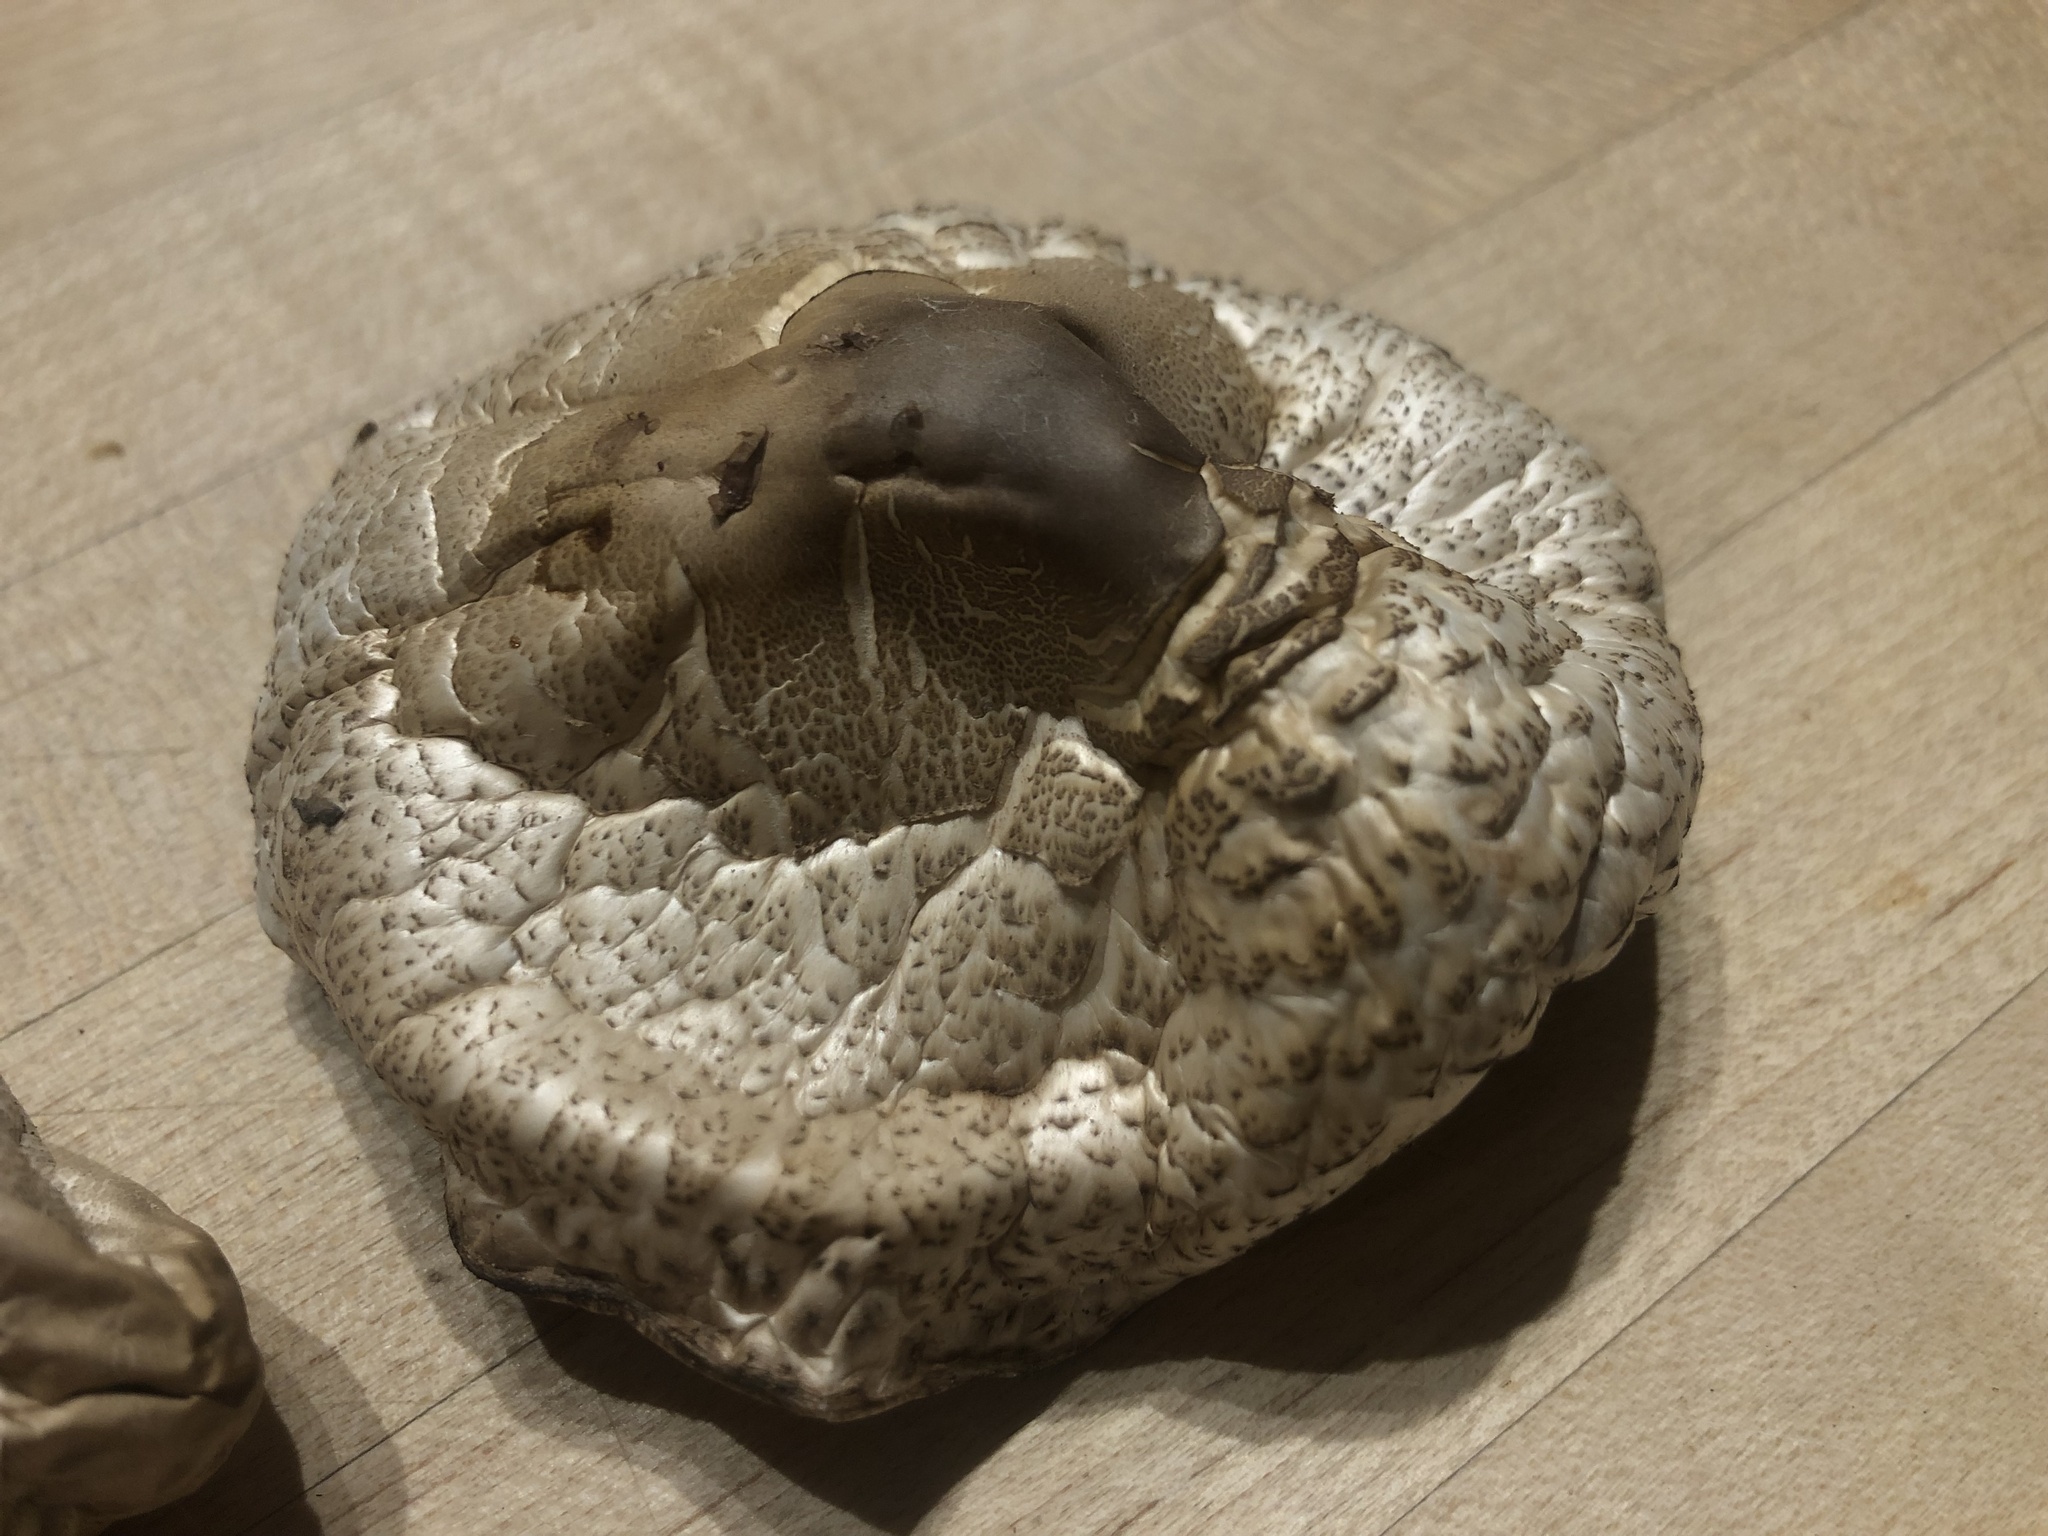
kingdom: Fungi
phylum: Basidiomycota
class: Agaricomycetes
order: Agaricales
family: Agaricaceae
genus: Leucoagaricus
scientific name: Leucoagaricus leucothites
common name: White dapperling
